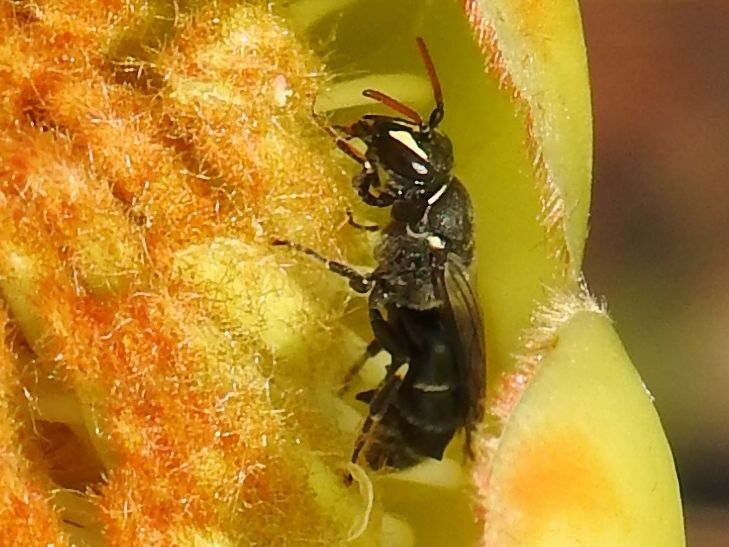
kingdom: Animalia
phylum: Chordata
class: Mammalia
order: Primates
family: Cercopithecidae
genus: Papio
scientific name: Papio ursinus
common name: Chacma baboon
